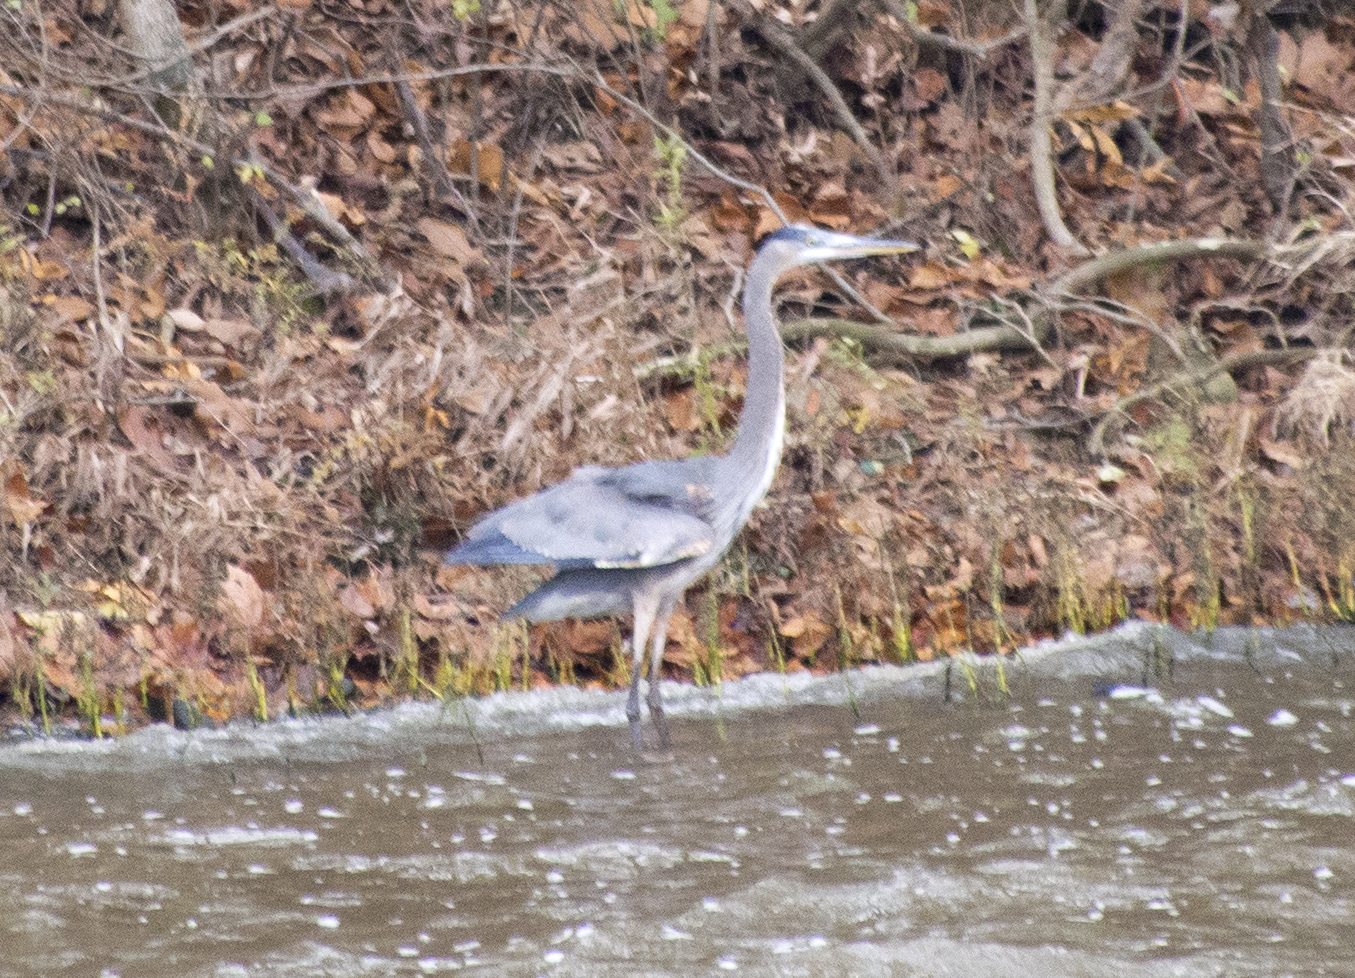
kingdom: Animalia
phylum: Chordata
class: Aves
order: Pelecaniformes
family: Ardeidae
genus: Ardea
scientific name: Ardea herodias
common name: Great blue heron
